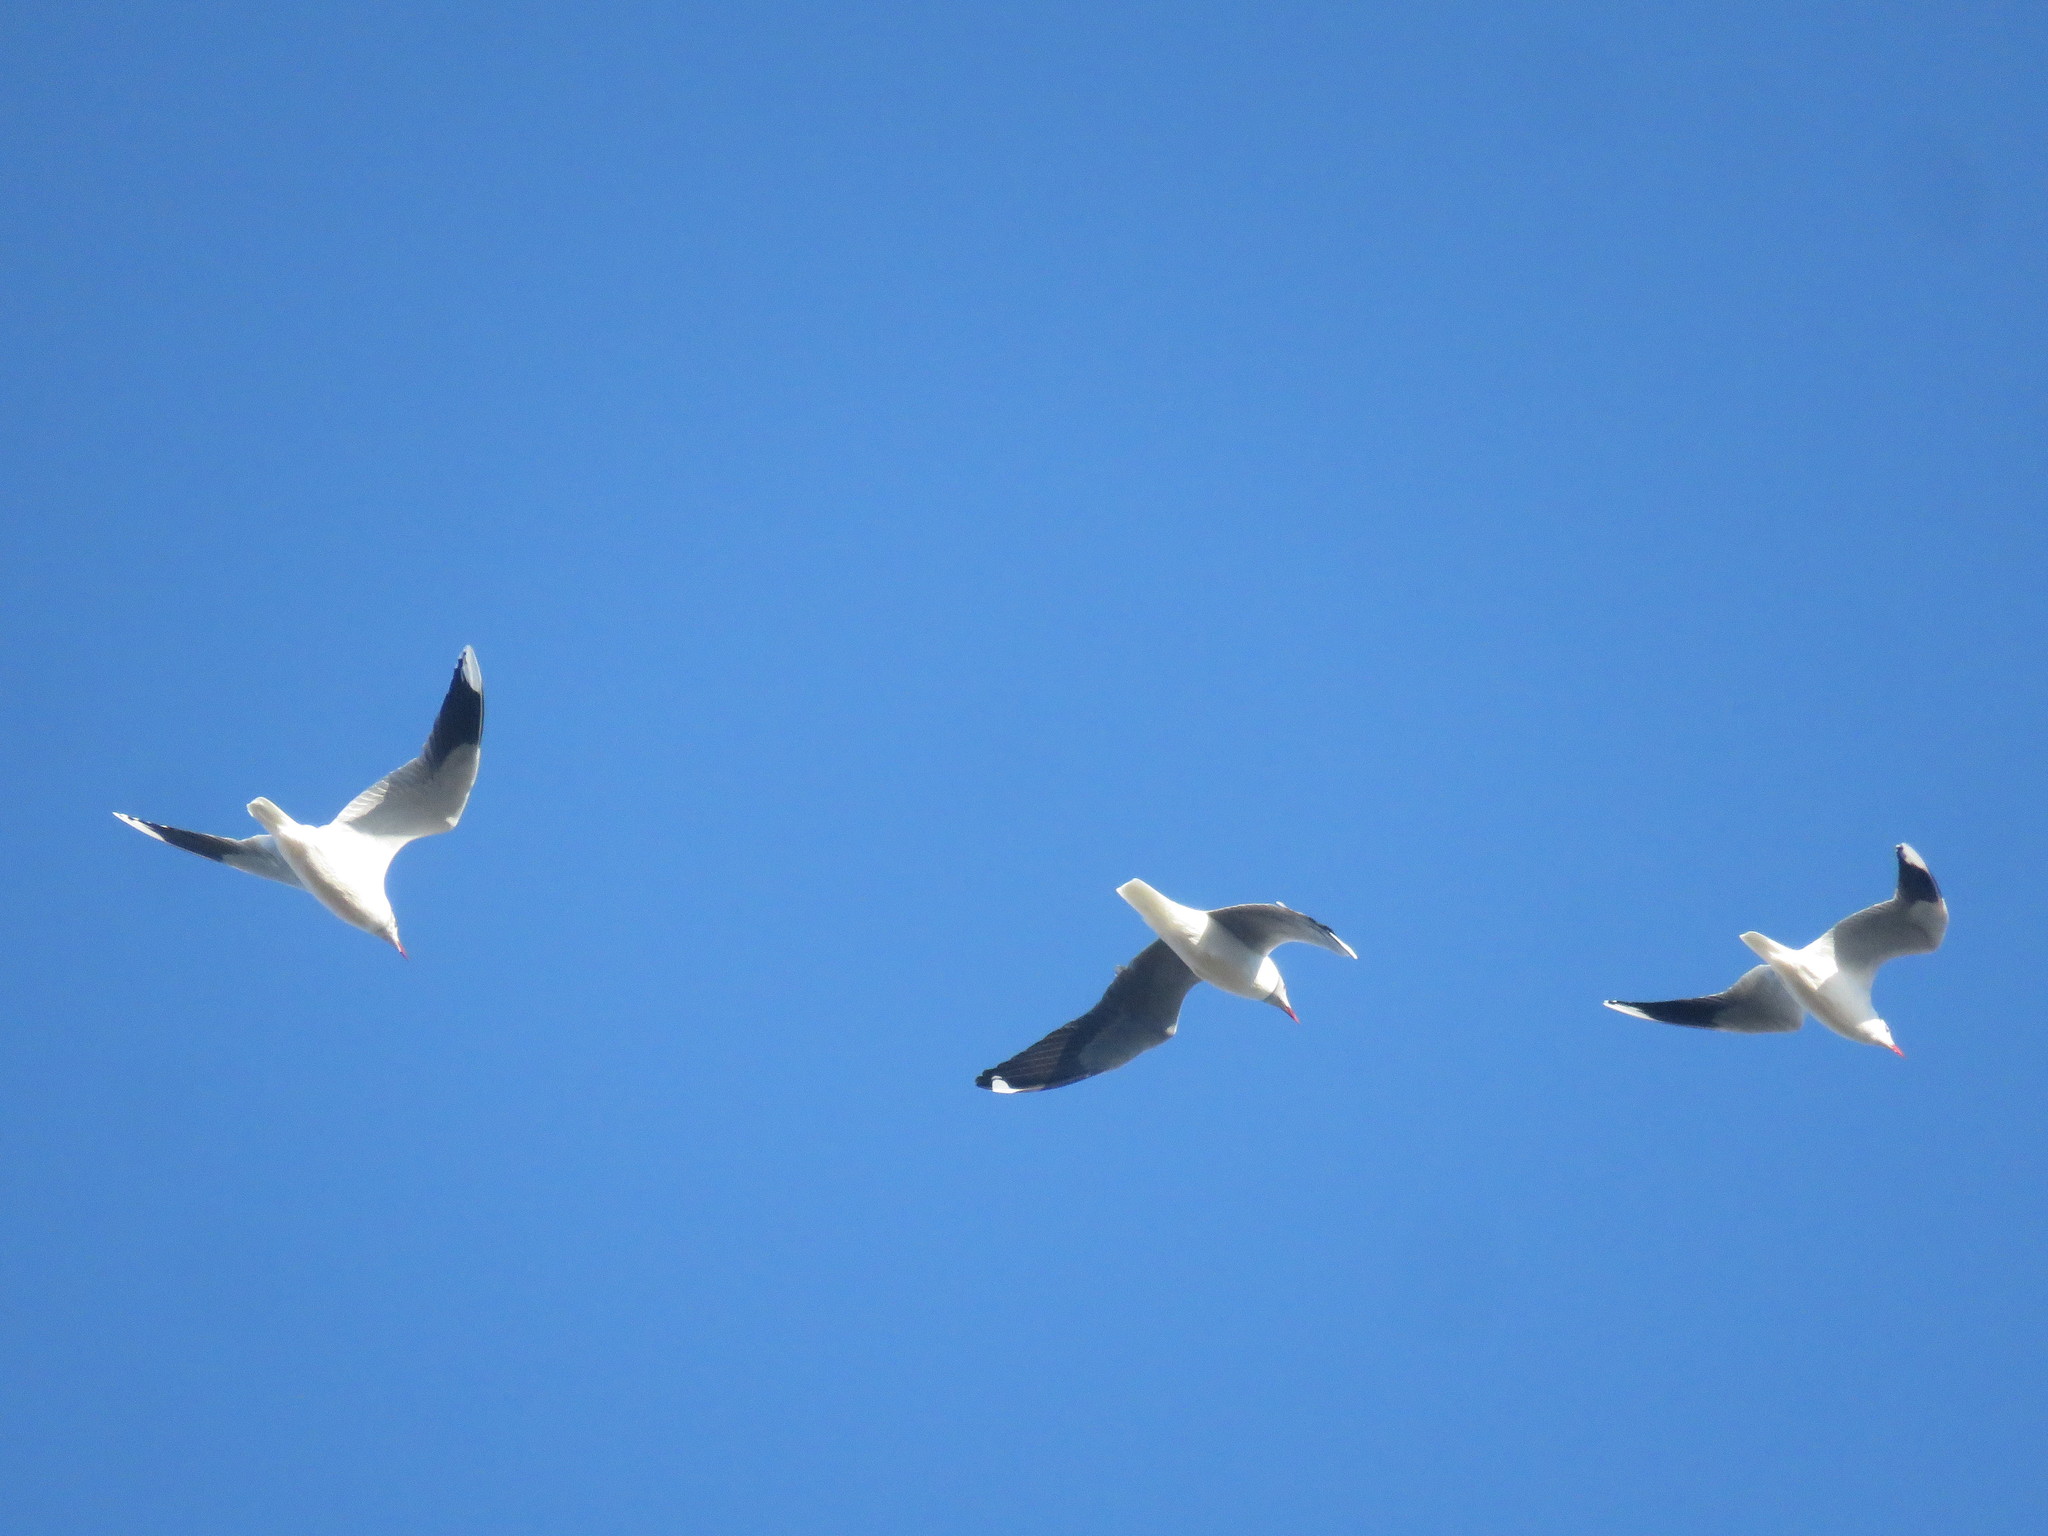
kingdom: Animalia
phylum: Chordata
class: Aves
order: Charadriiformes
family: Laridae
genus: Chroicocephalus
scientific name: Chroicocephalus cirrocephalus
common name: Grey-headed gull
